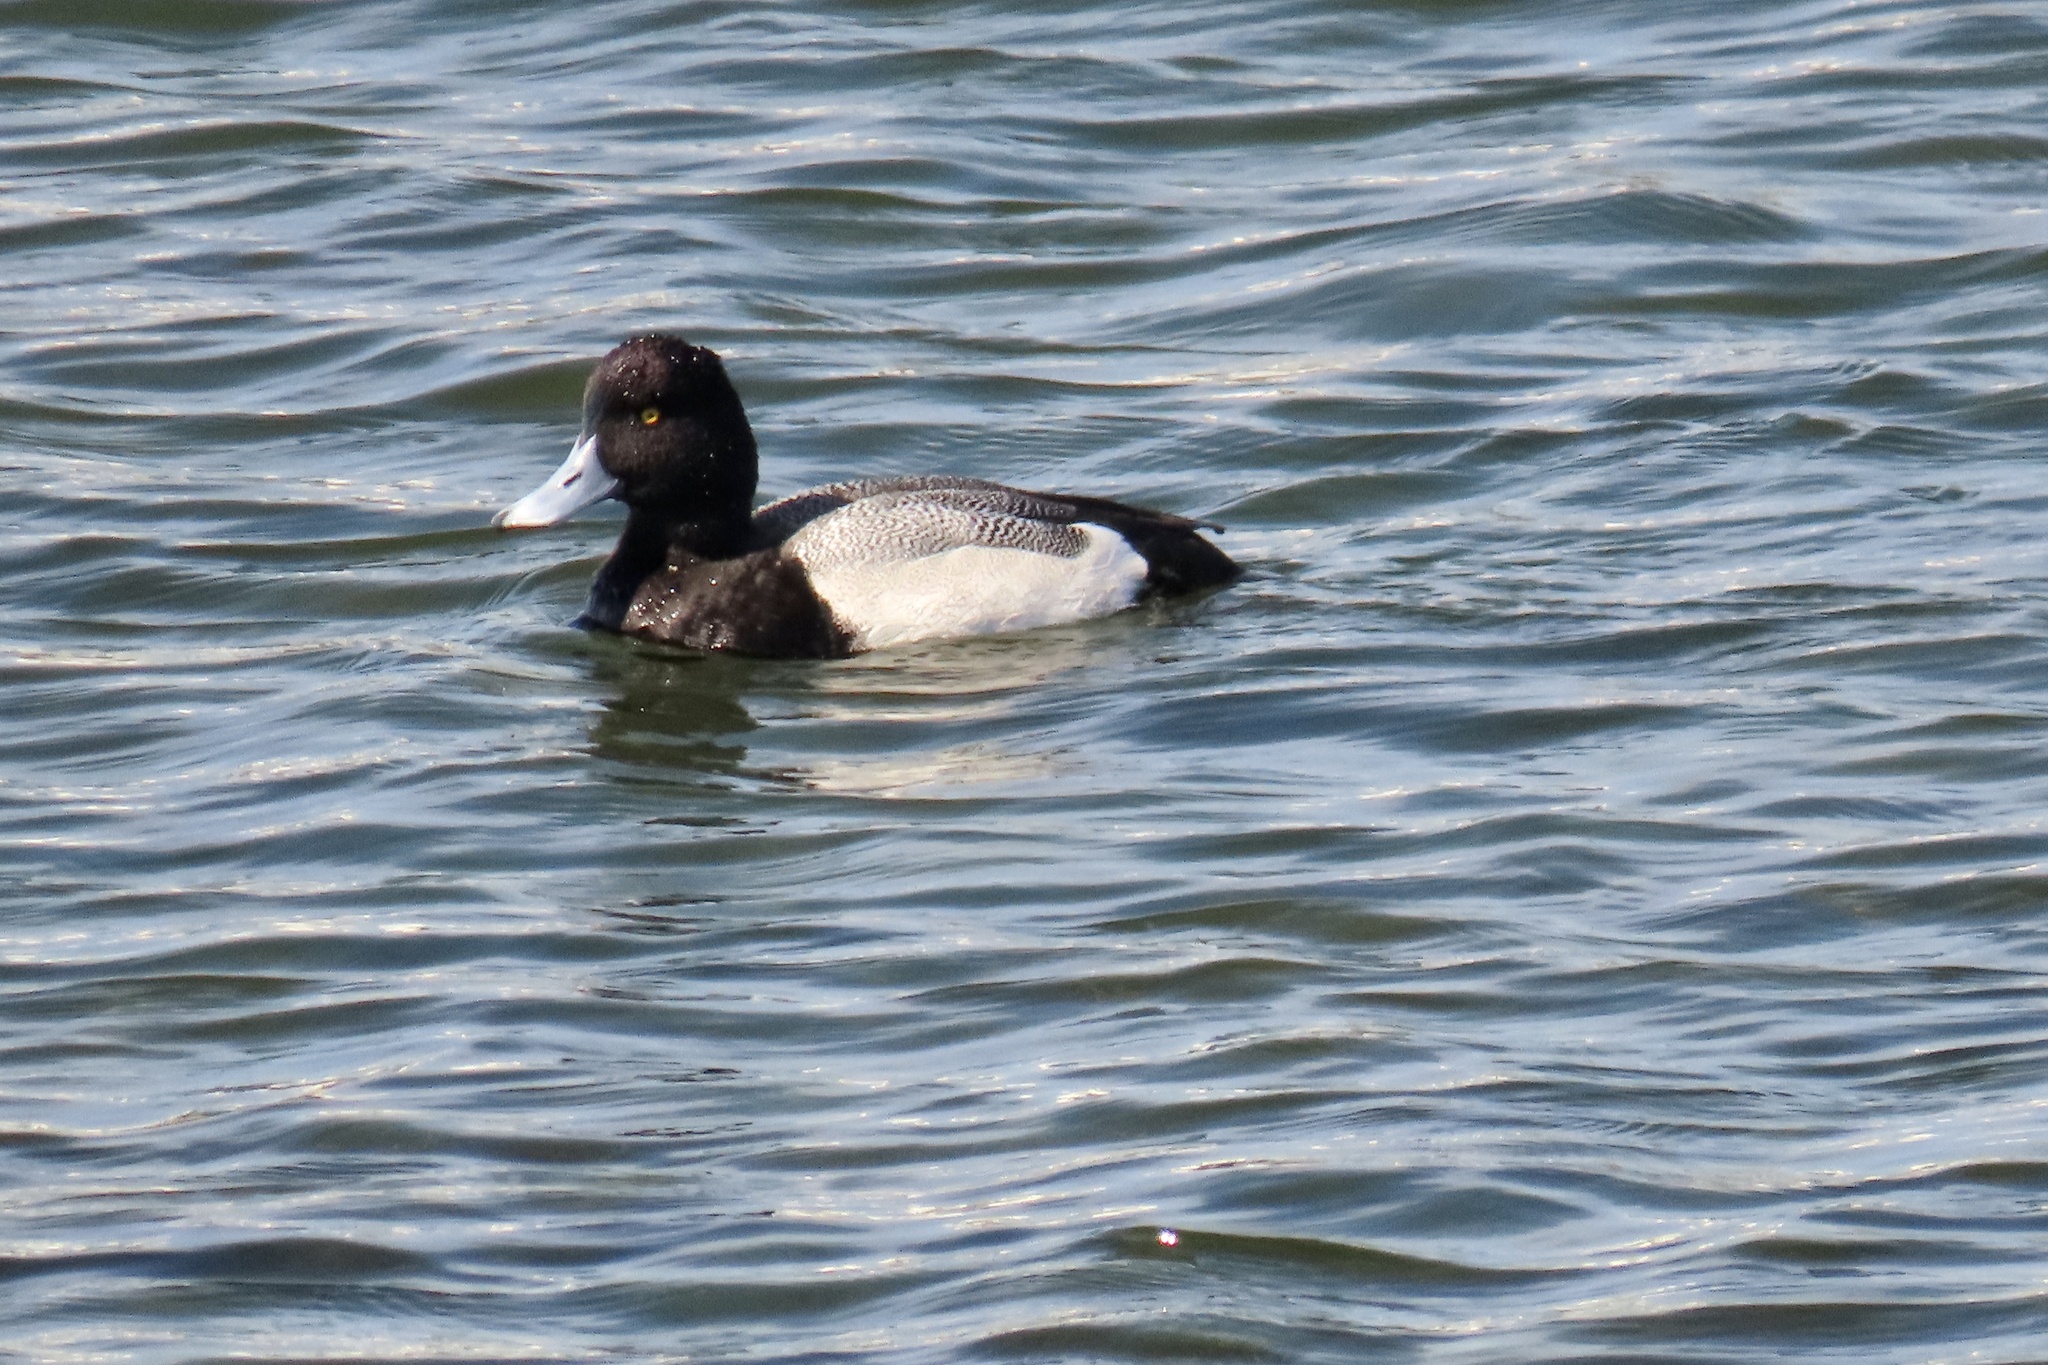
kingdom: Animalia
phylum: Chordata
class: Aves
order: Anseriformes
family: Anatidae
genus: Aythya
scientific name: Aythya affinis
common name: Lesser scaup
